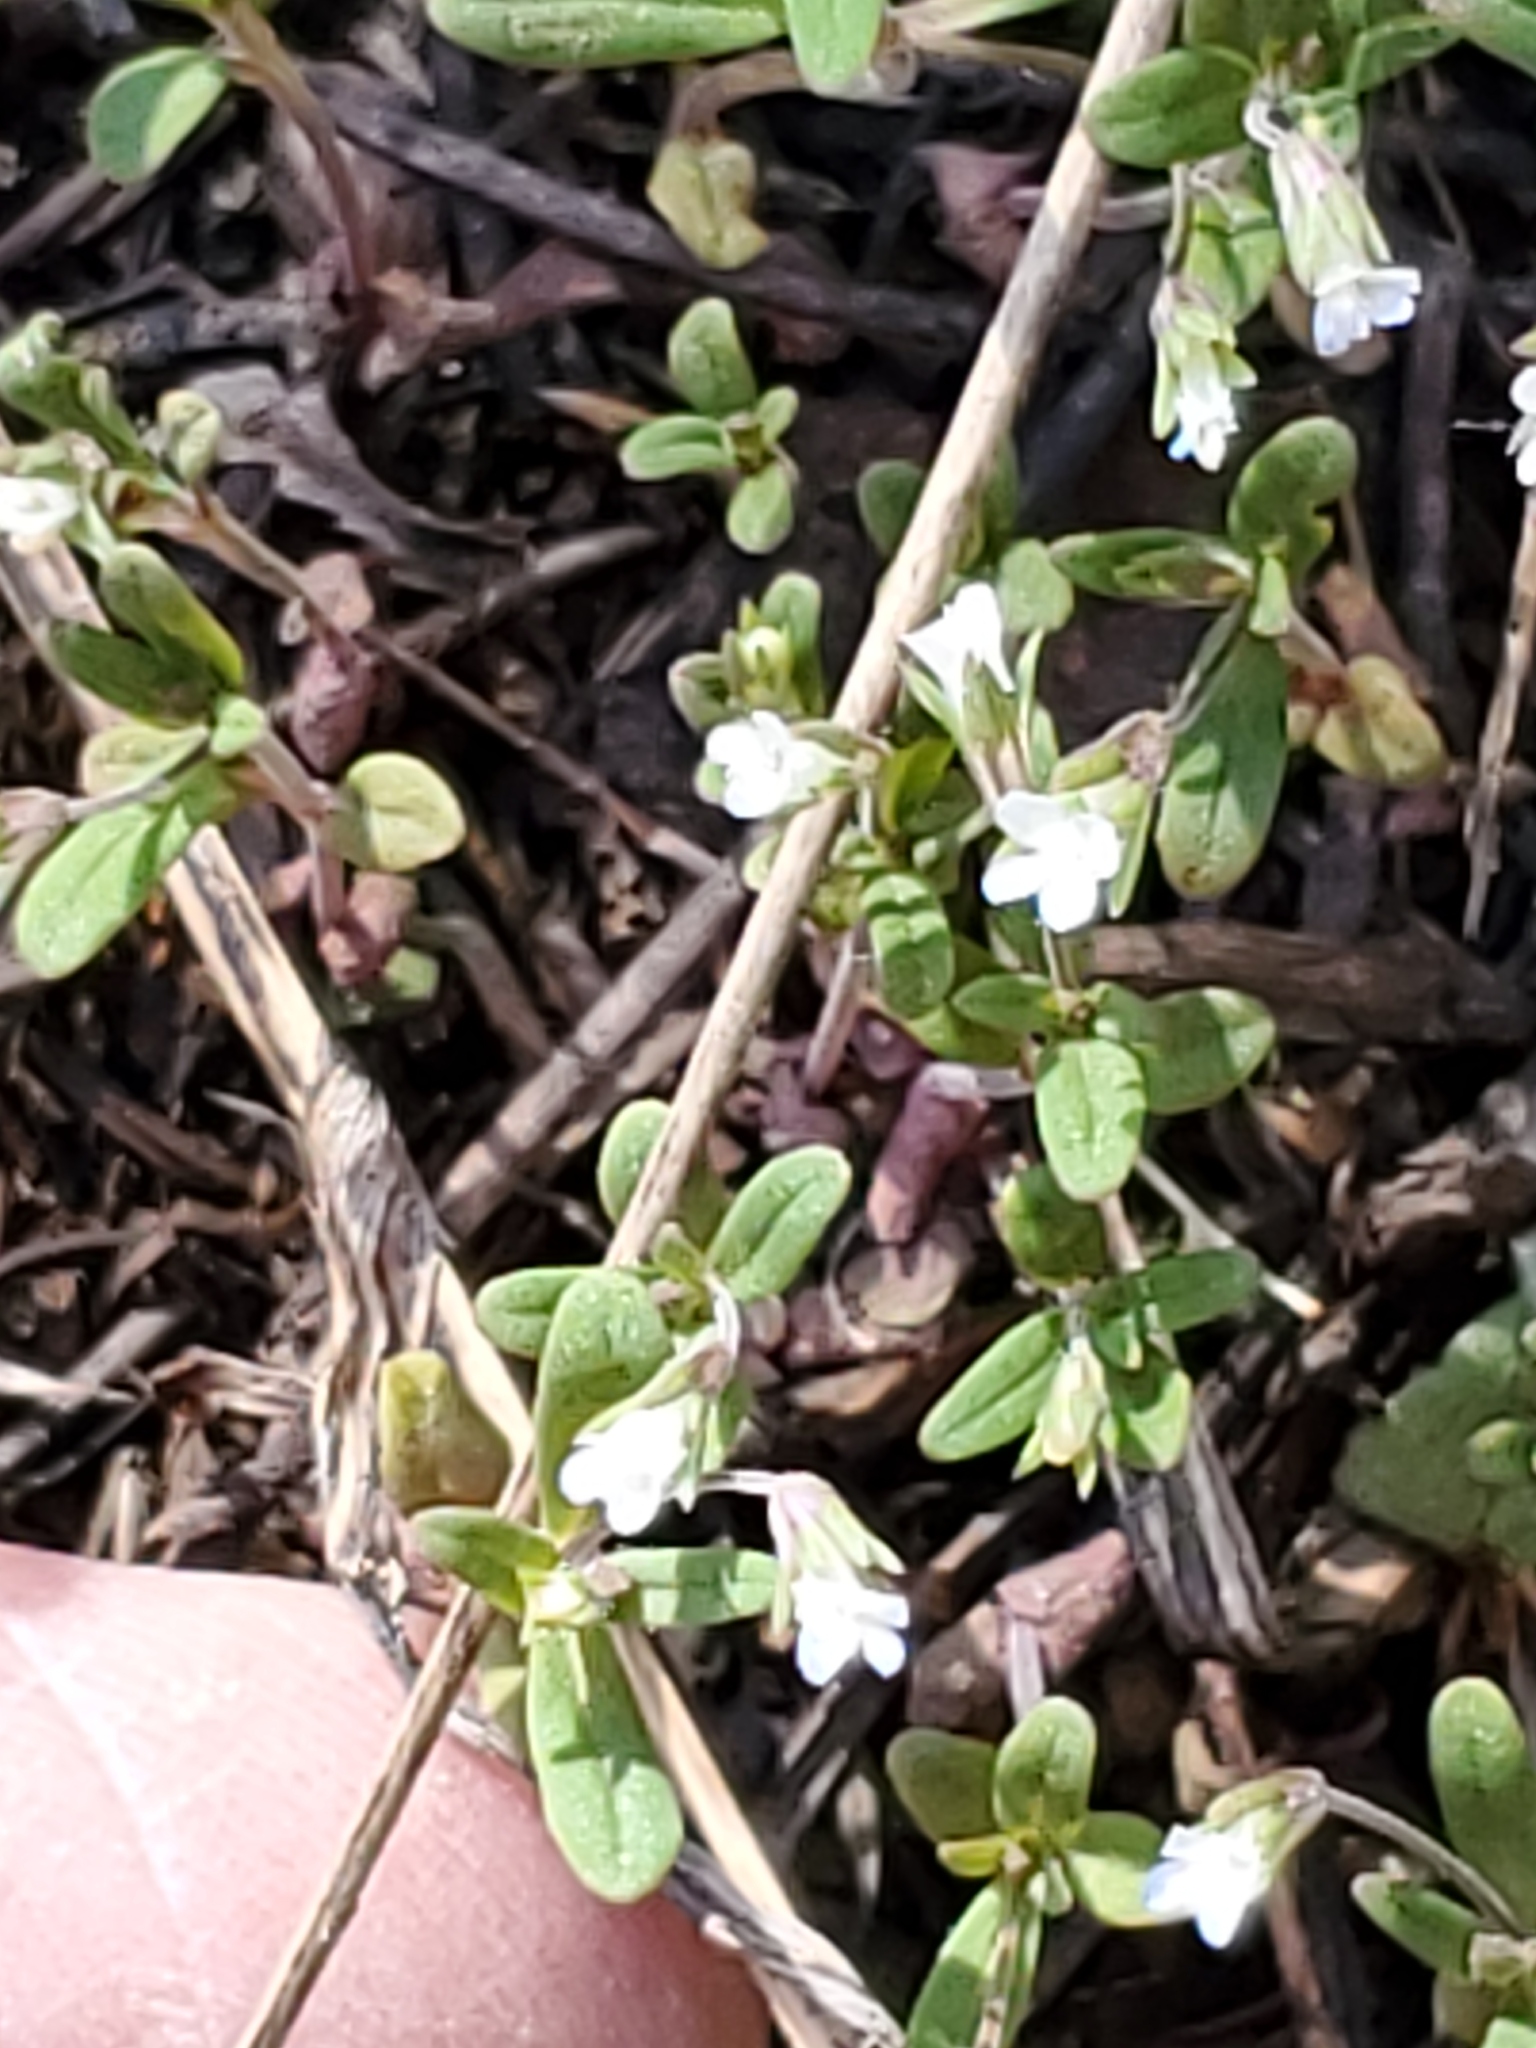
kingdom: Plantae
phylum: Tracheophyta
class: Magnoliopsida
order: Lamiales
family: Plantaginaceae
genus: Collinsia
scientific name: Collinsia parviflora
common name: Blue-lips
